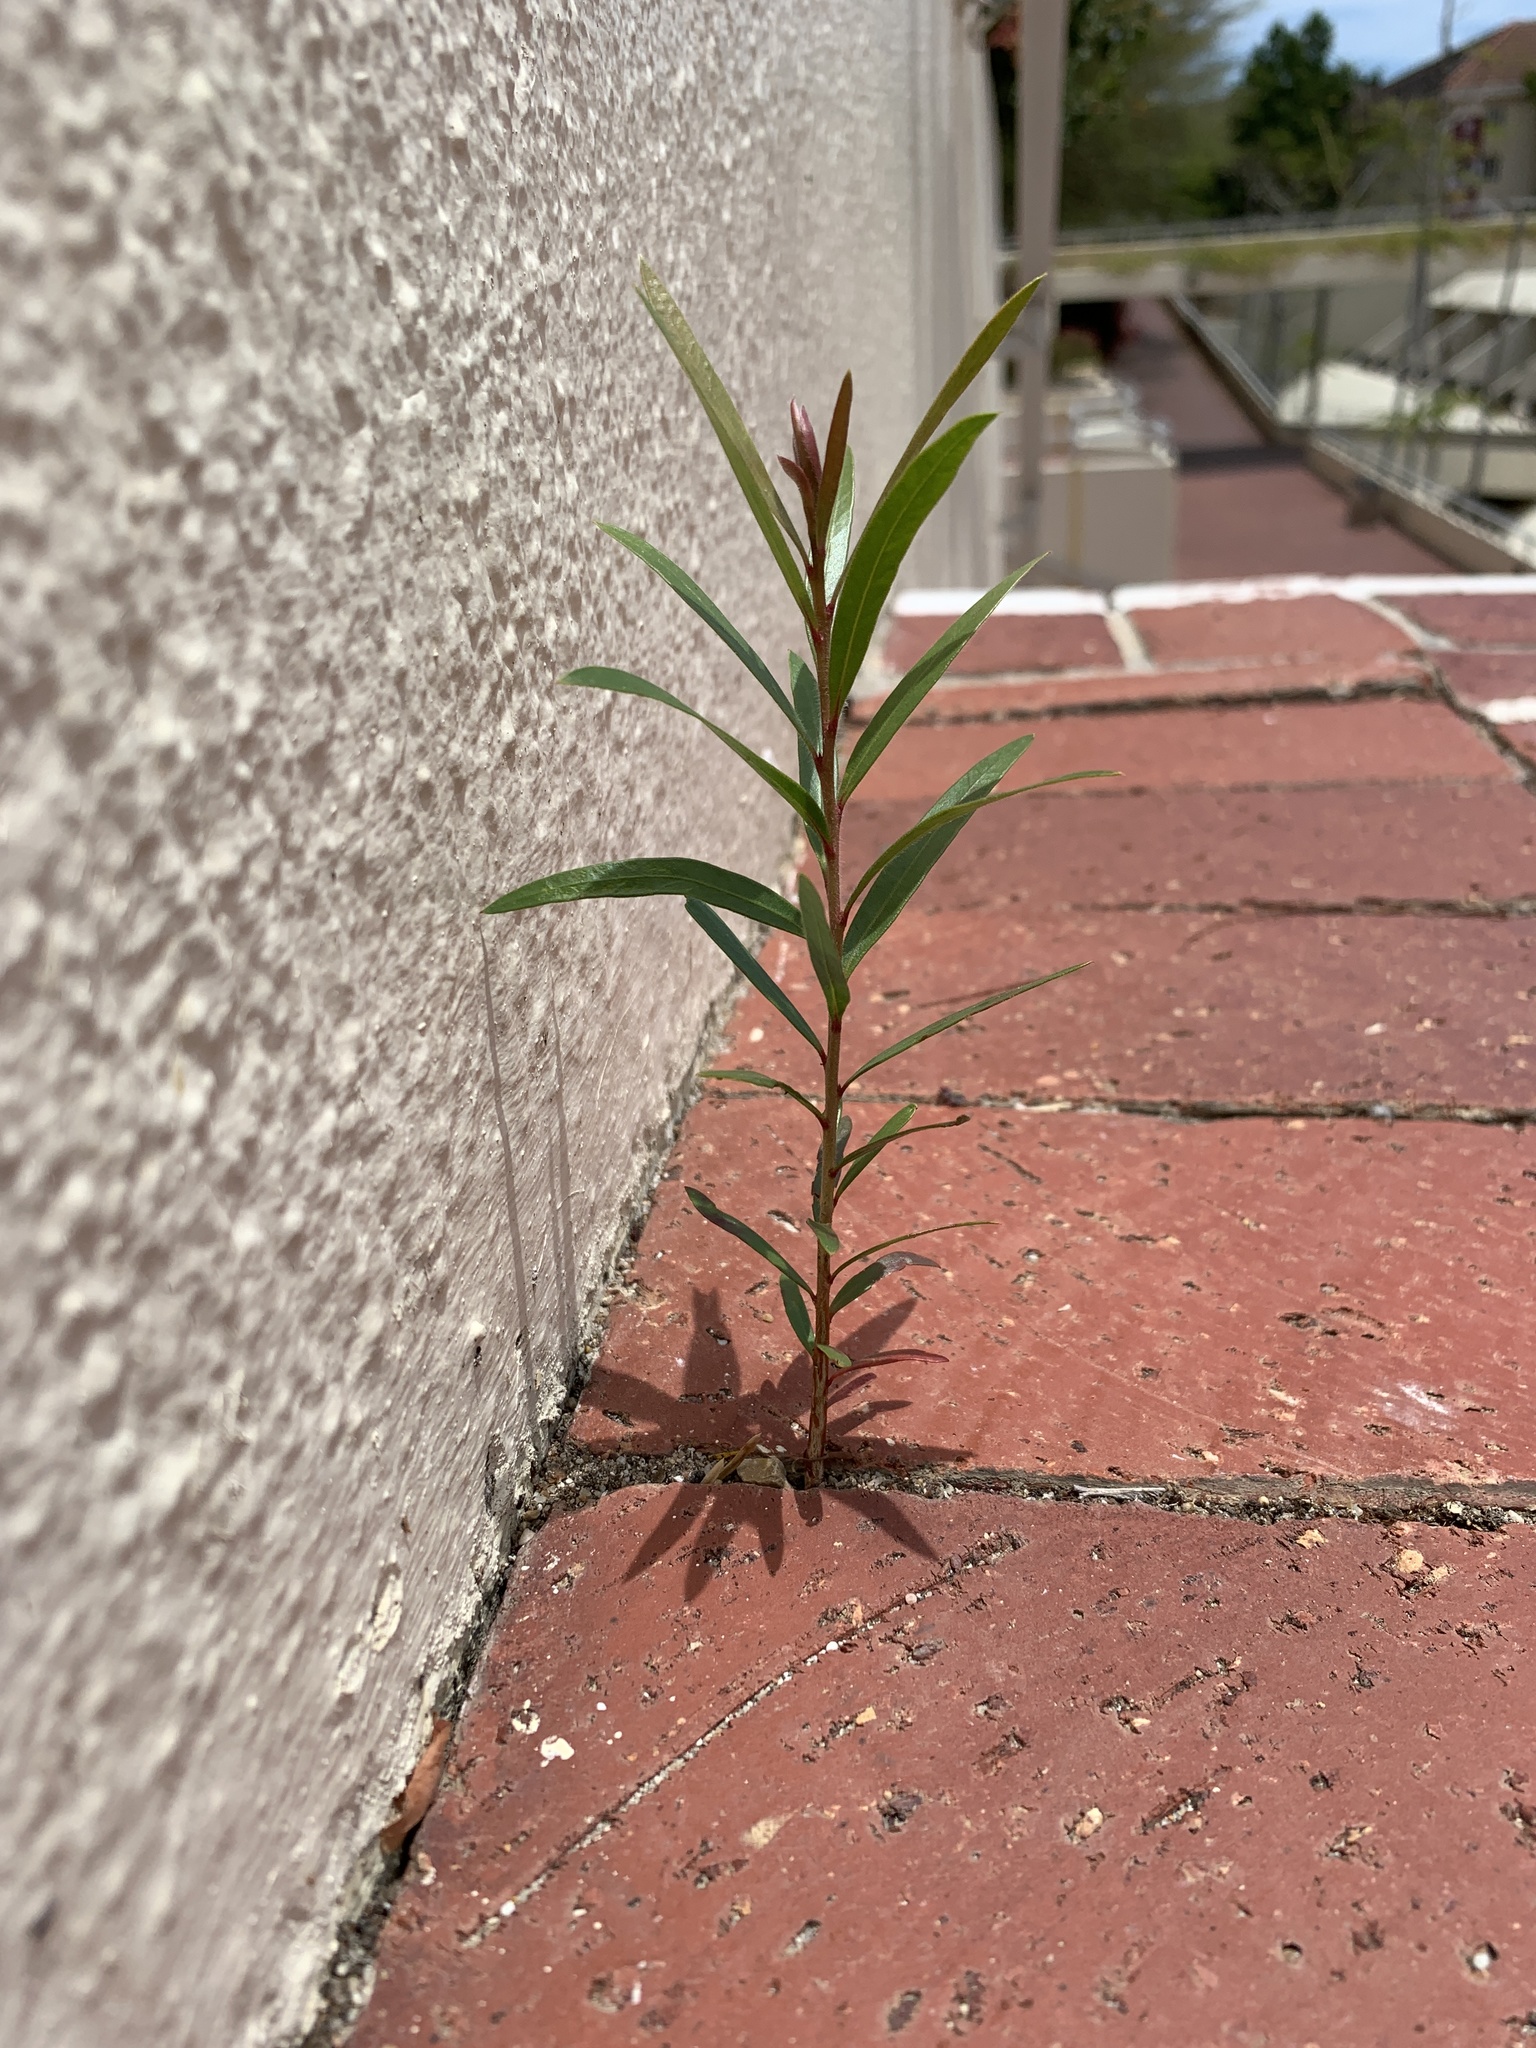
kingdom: Plantae
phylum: Tracheophyta
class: Magnoliopsida
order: Myrtales
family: Myrtaceae
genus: Callistemon
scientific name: Callistemon viminalis
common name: Drooping bottlebrush
